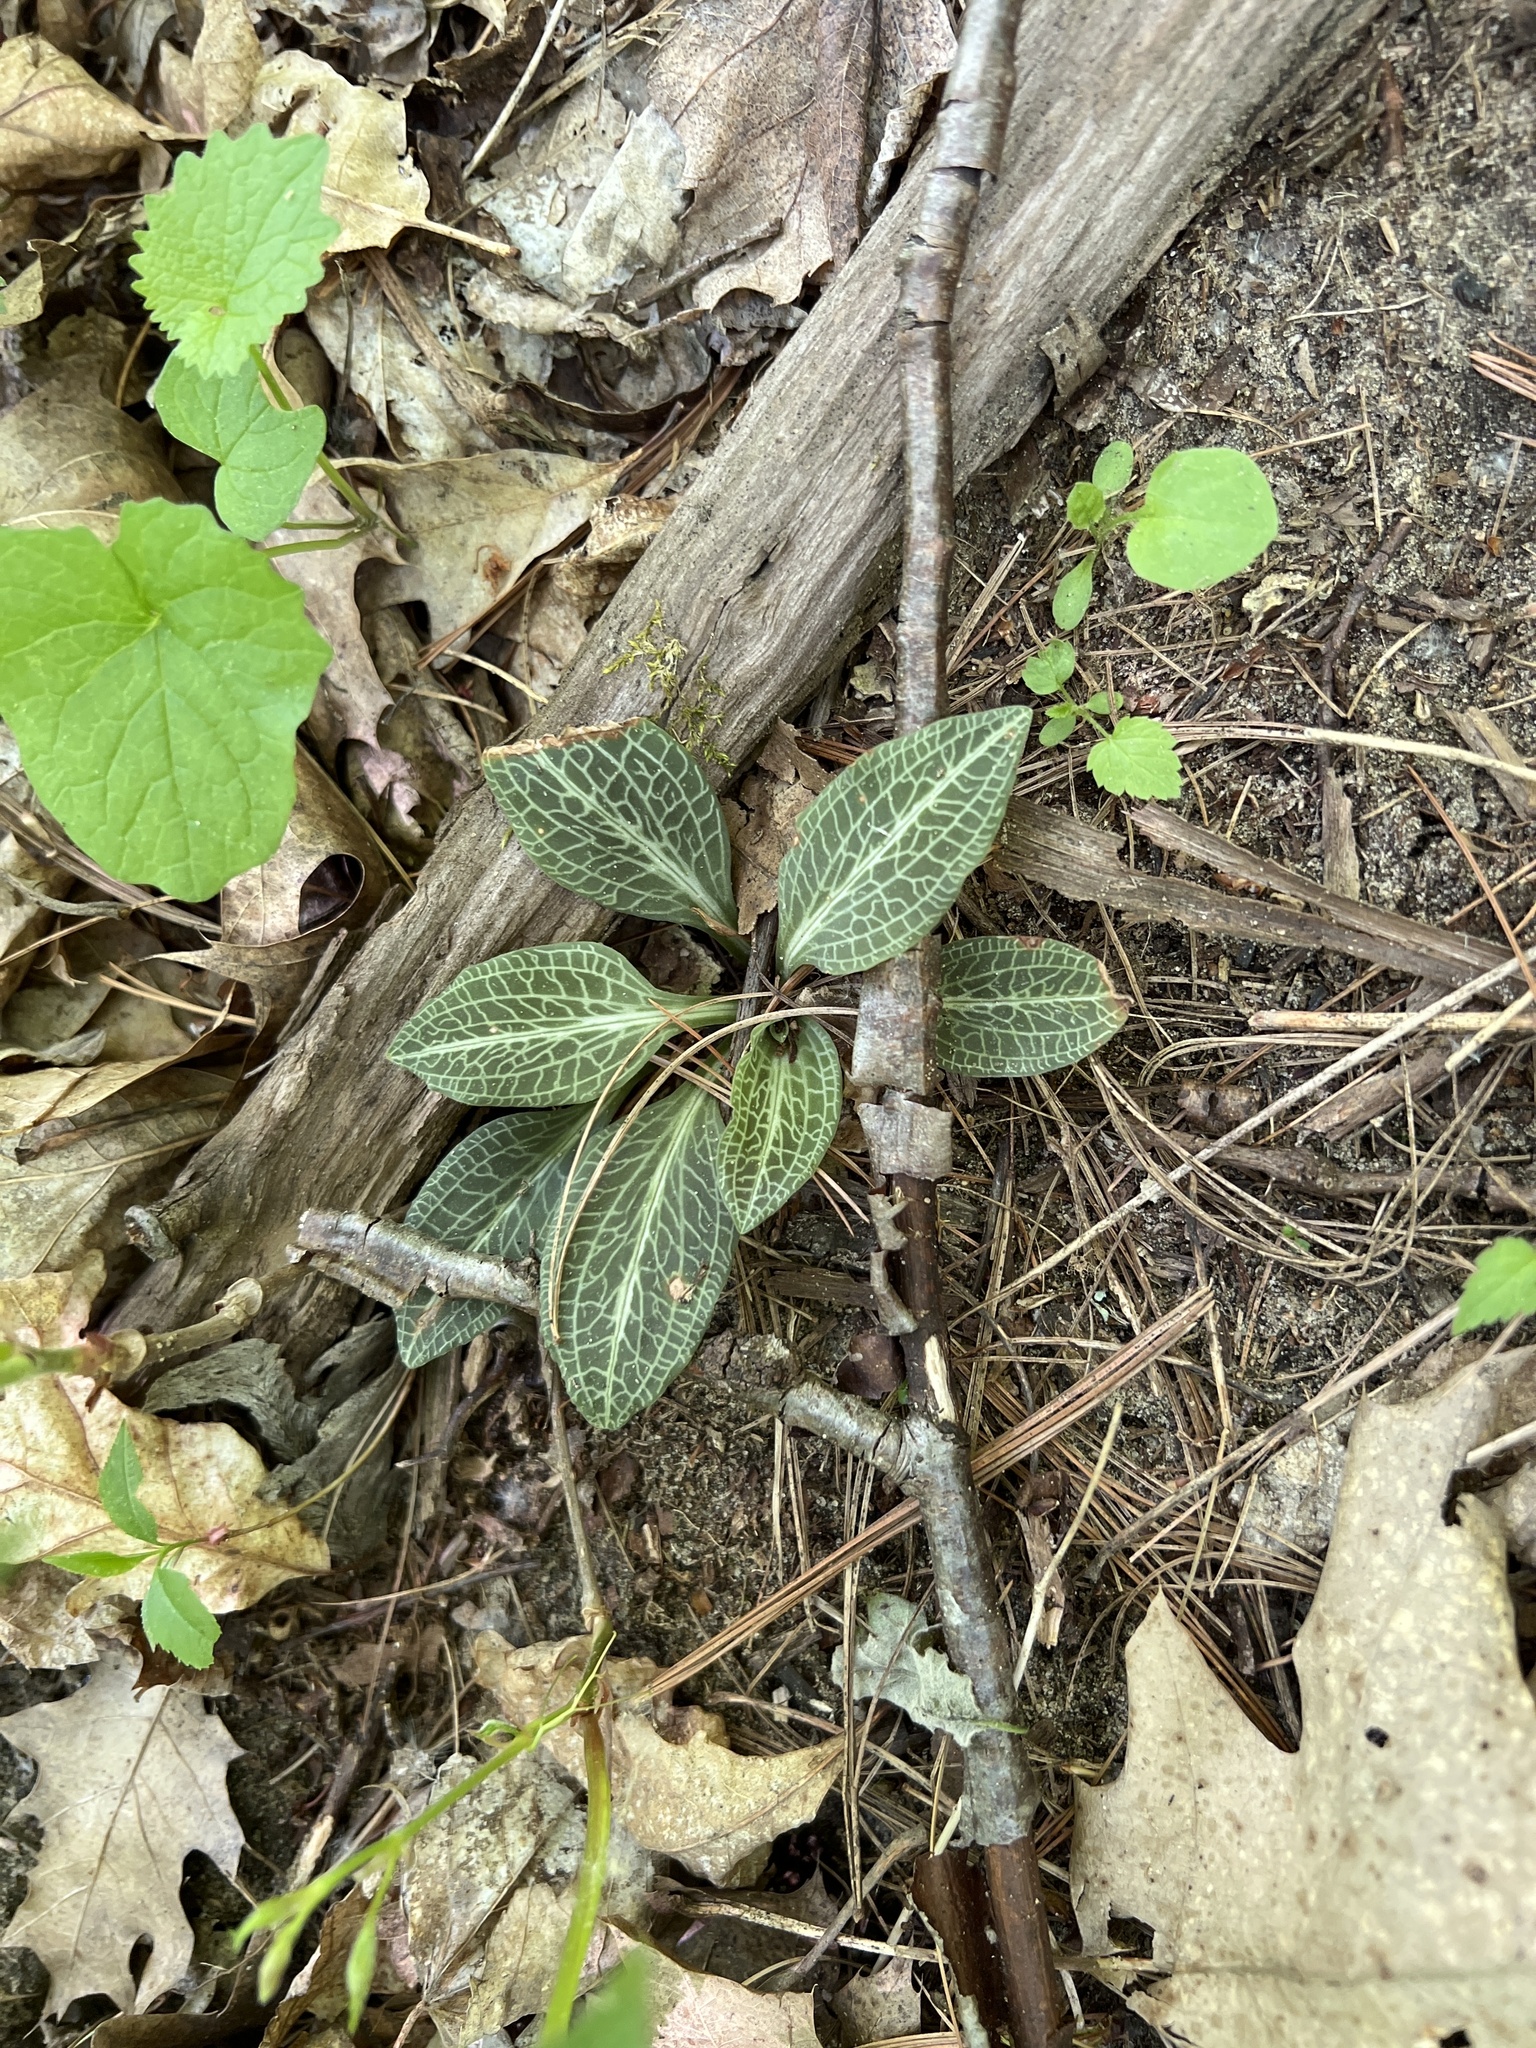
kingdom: Plantae
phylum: Tracheophyta
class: Liliopsida
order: Asparagales
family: Orchidaceae
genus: Goodyera
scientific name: Goodyera pubescens
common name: Downy rattlesnake-plantain
